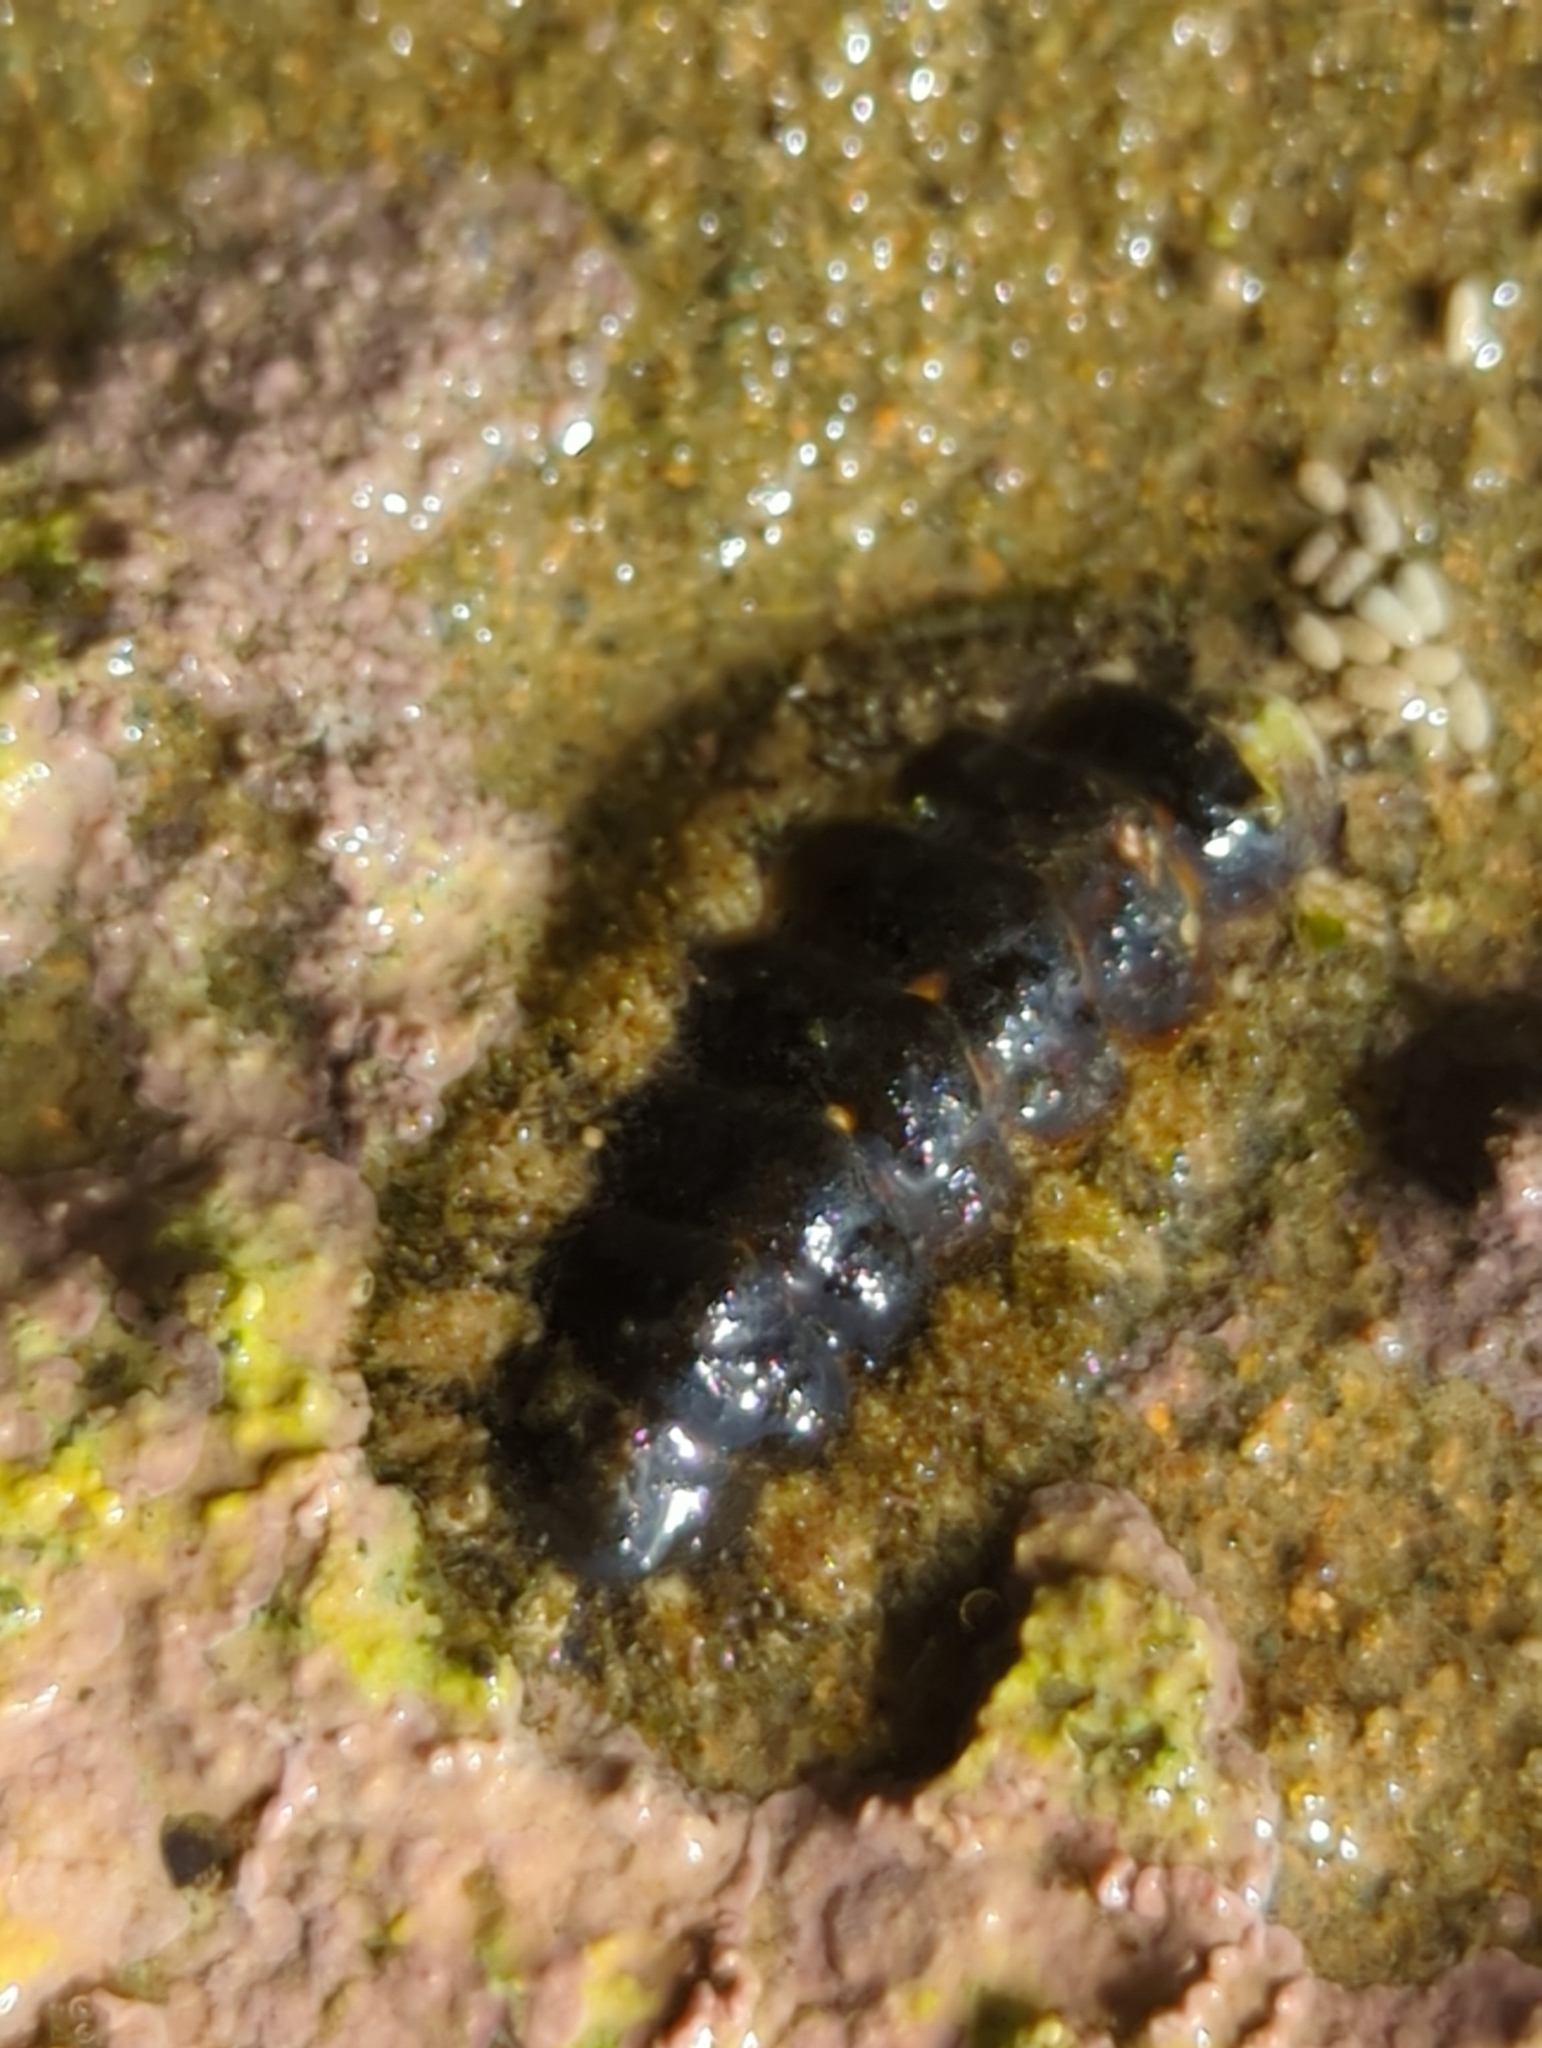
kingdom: Animalia
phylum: Mollusca
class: Polyplacophora
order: Chitonida
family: Tonicellidae
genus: Nuttallina
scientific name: Nuttallina californica
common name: California nuttall chiton
